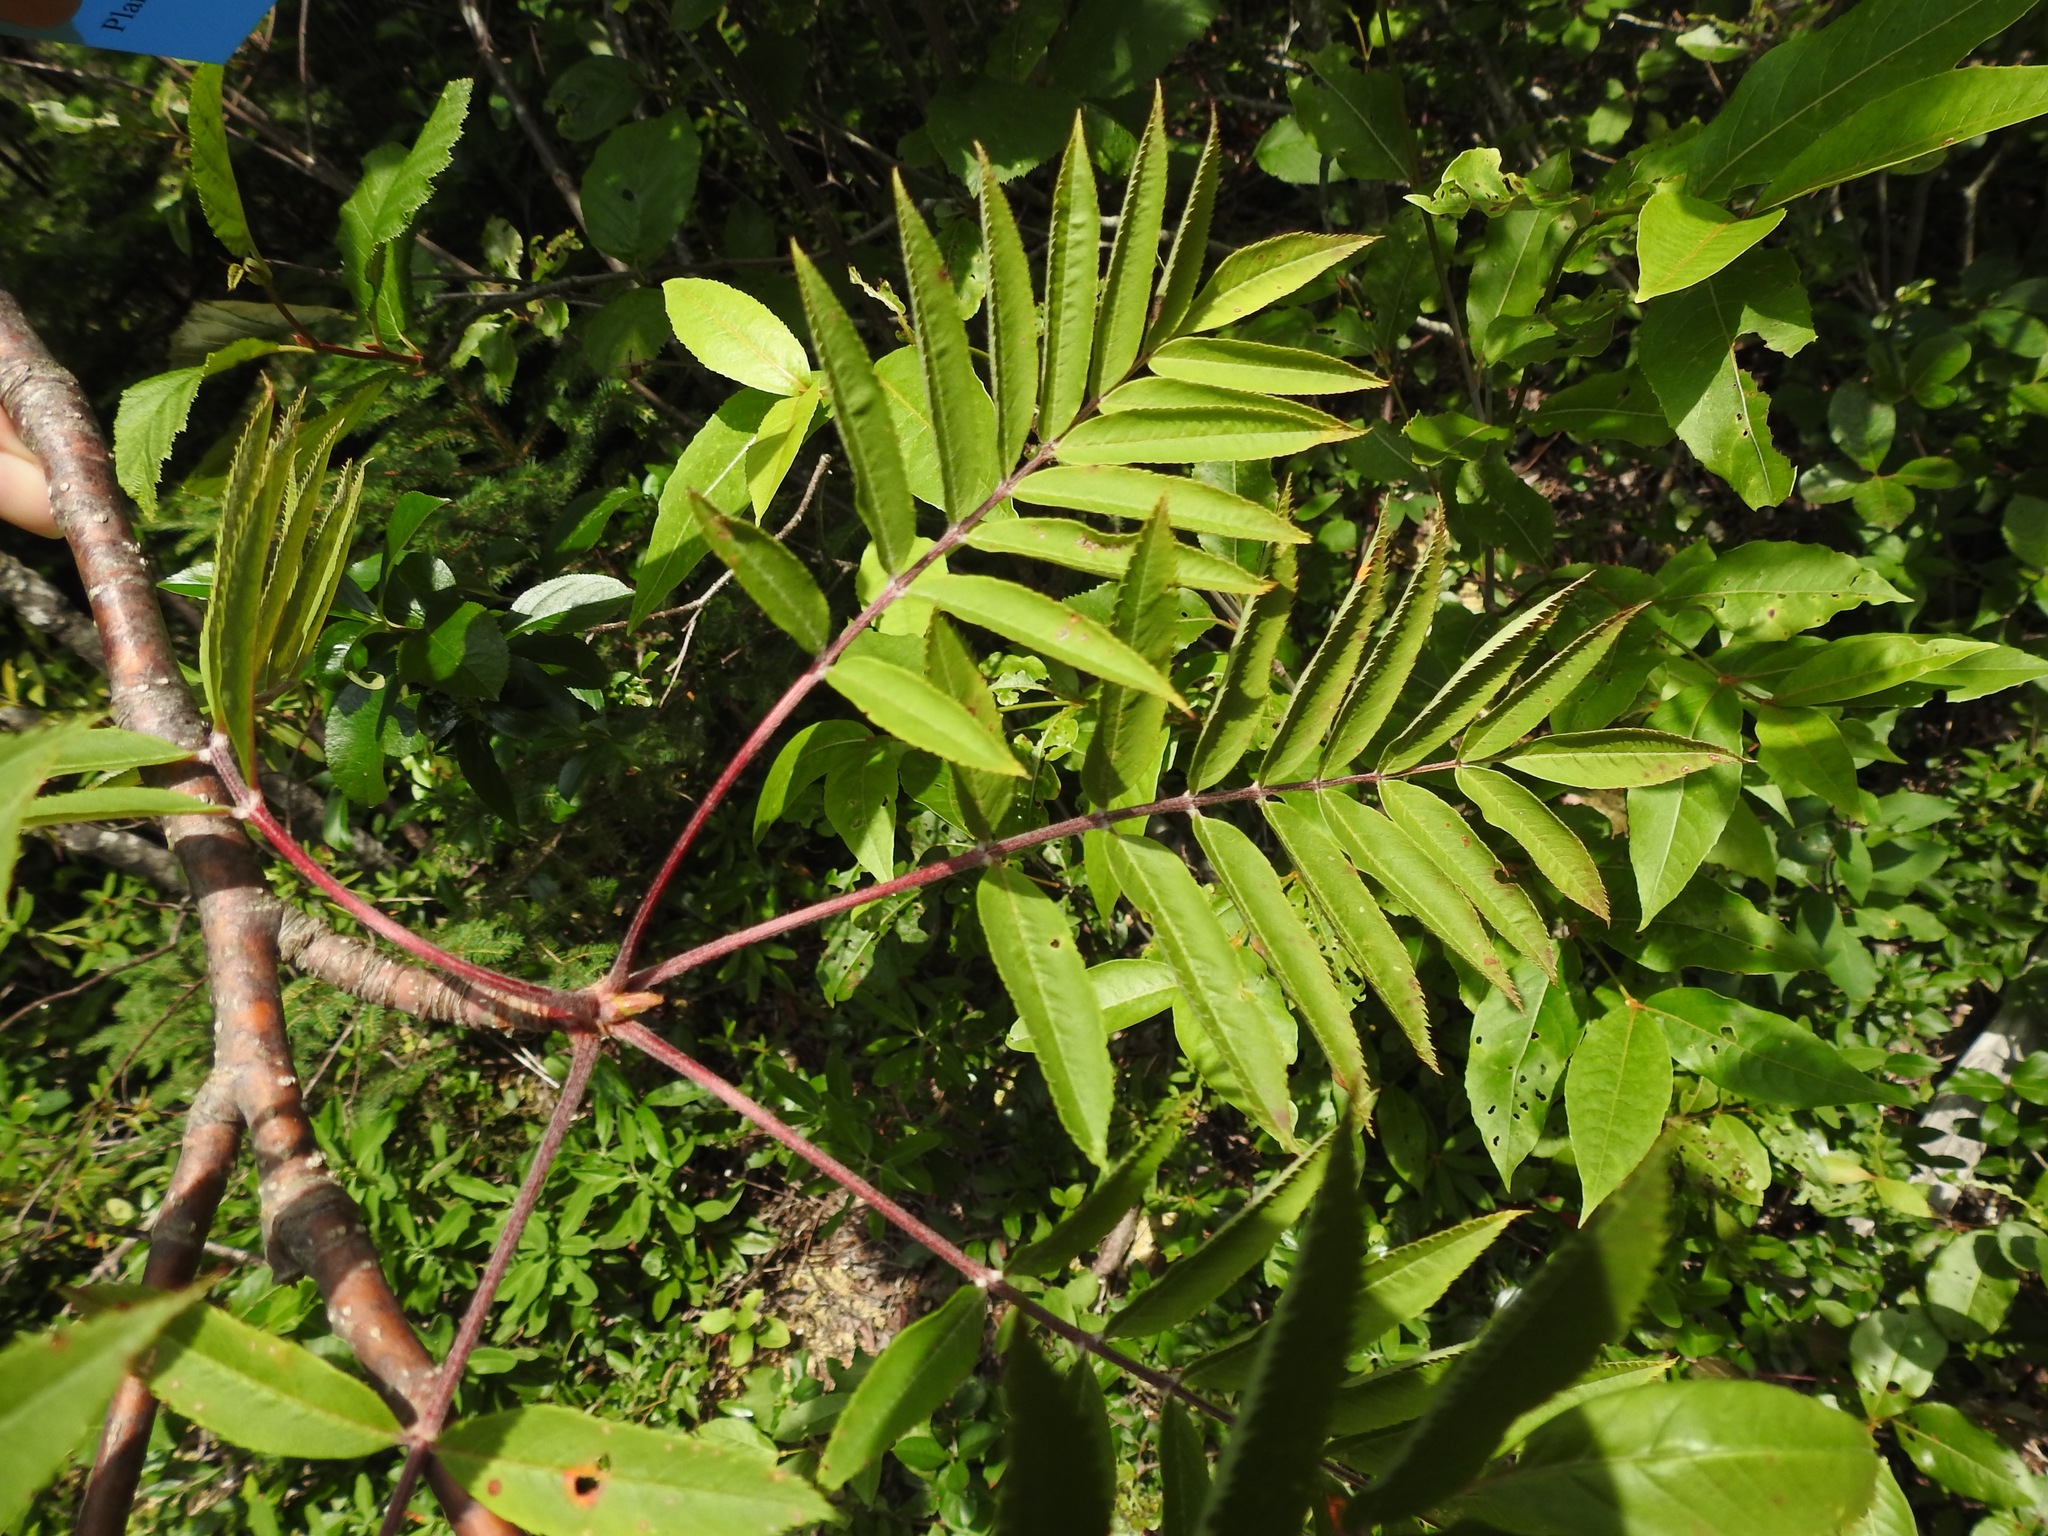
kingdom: Plantae
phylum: Tracheophyta
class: Magnoliopsida
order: Rosales
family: Rosaceae
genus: Sorbus
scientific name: Sorbus americana
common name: American mountain-ash
